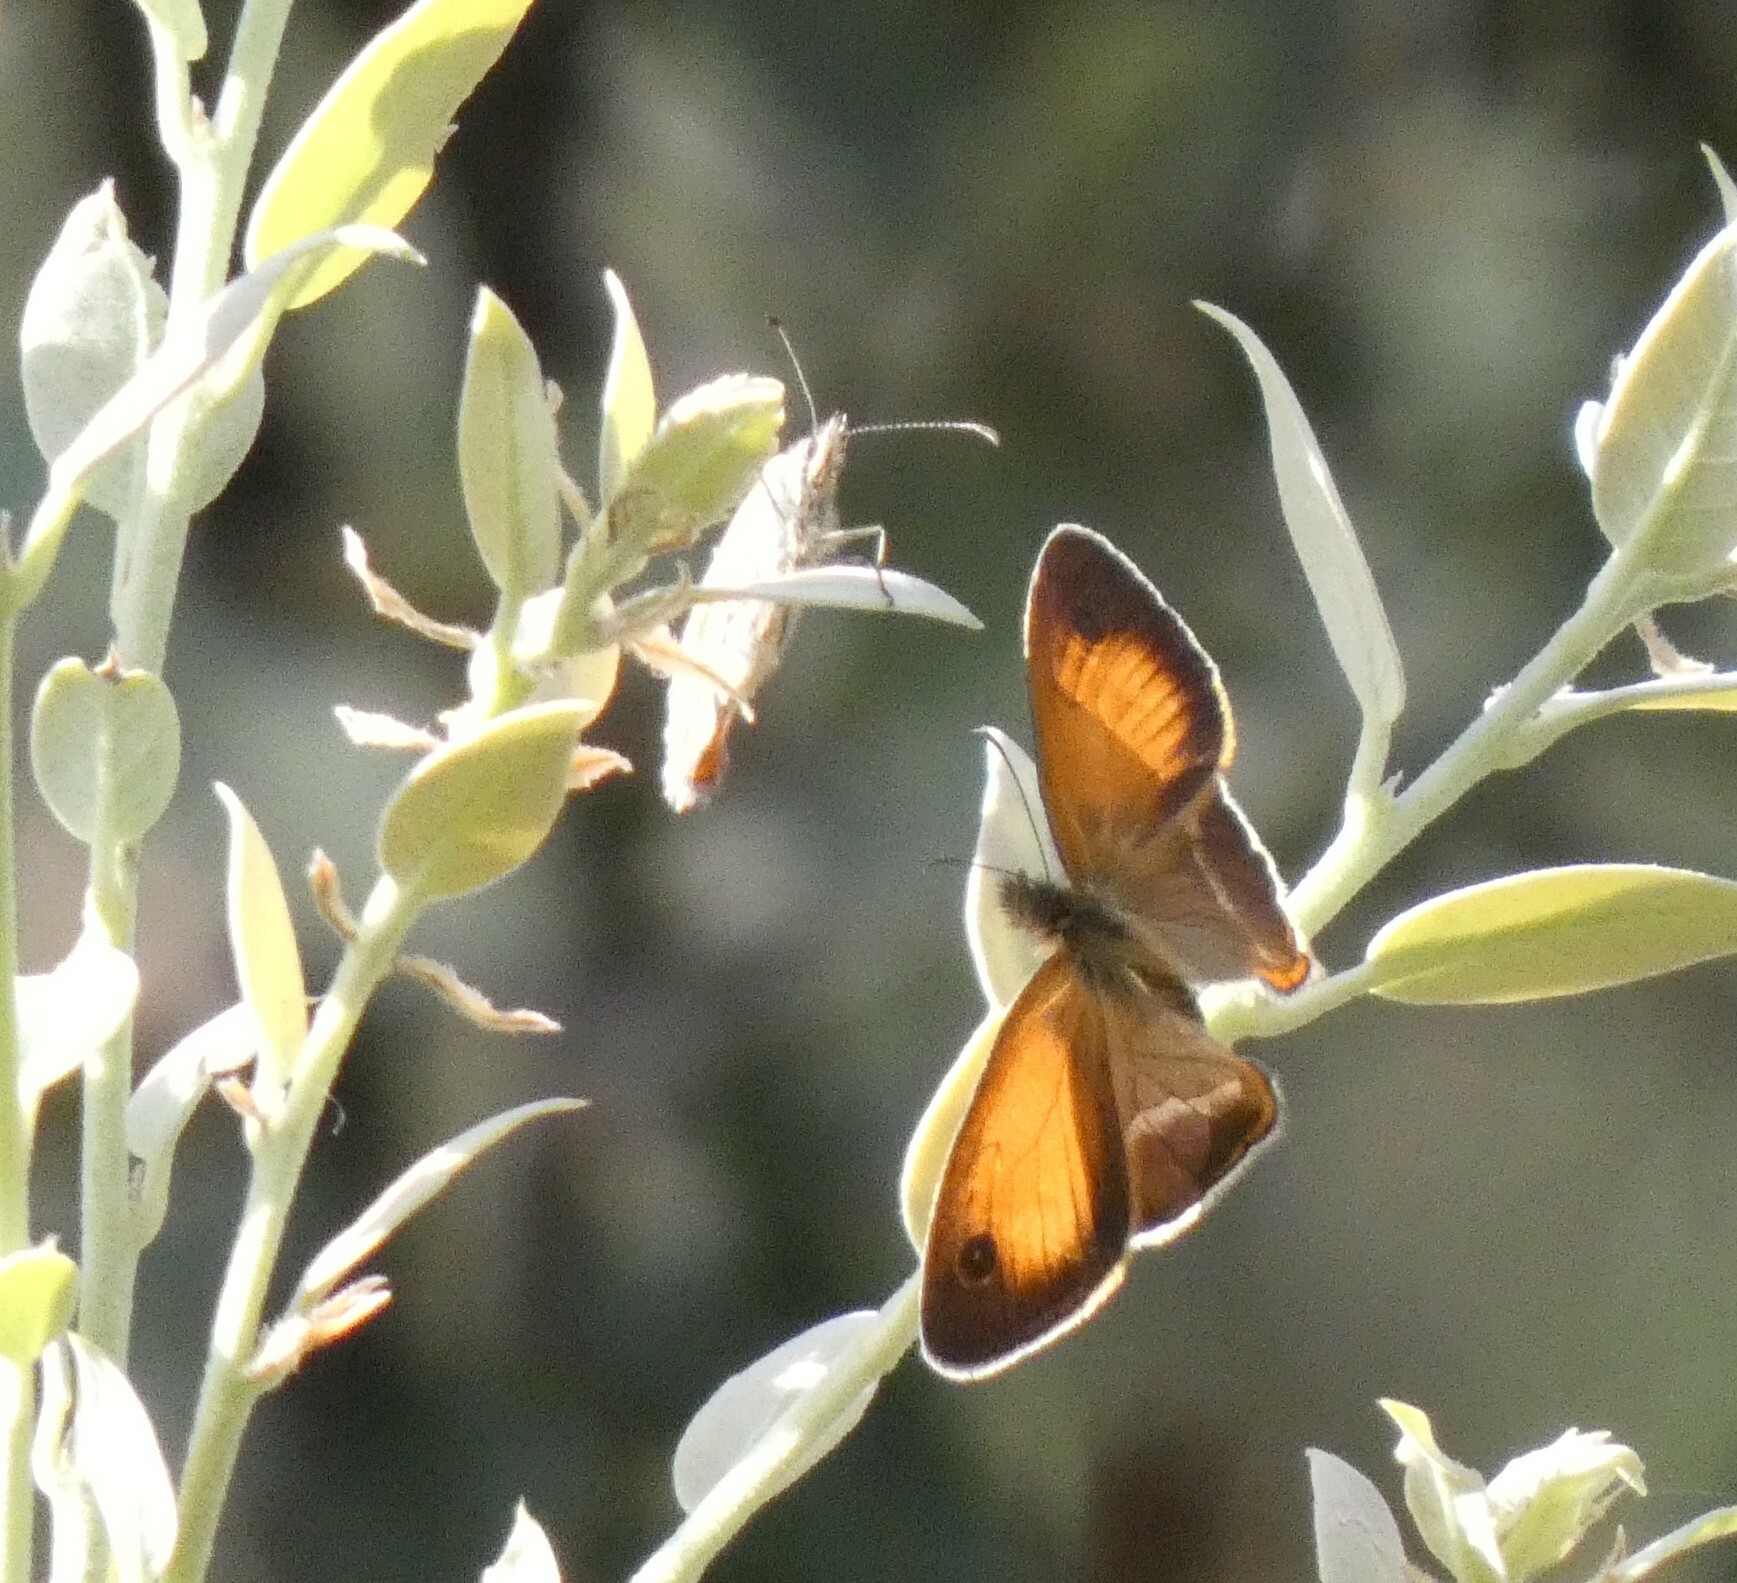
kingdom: Animalia
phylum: Arthropoda
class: Insecta
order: Lepidoptera
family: Nymphalidae
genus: Coenonympha
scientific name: Coenonympha arcanioides
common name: Moroccan pearly heath
